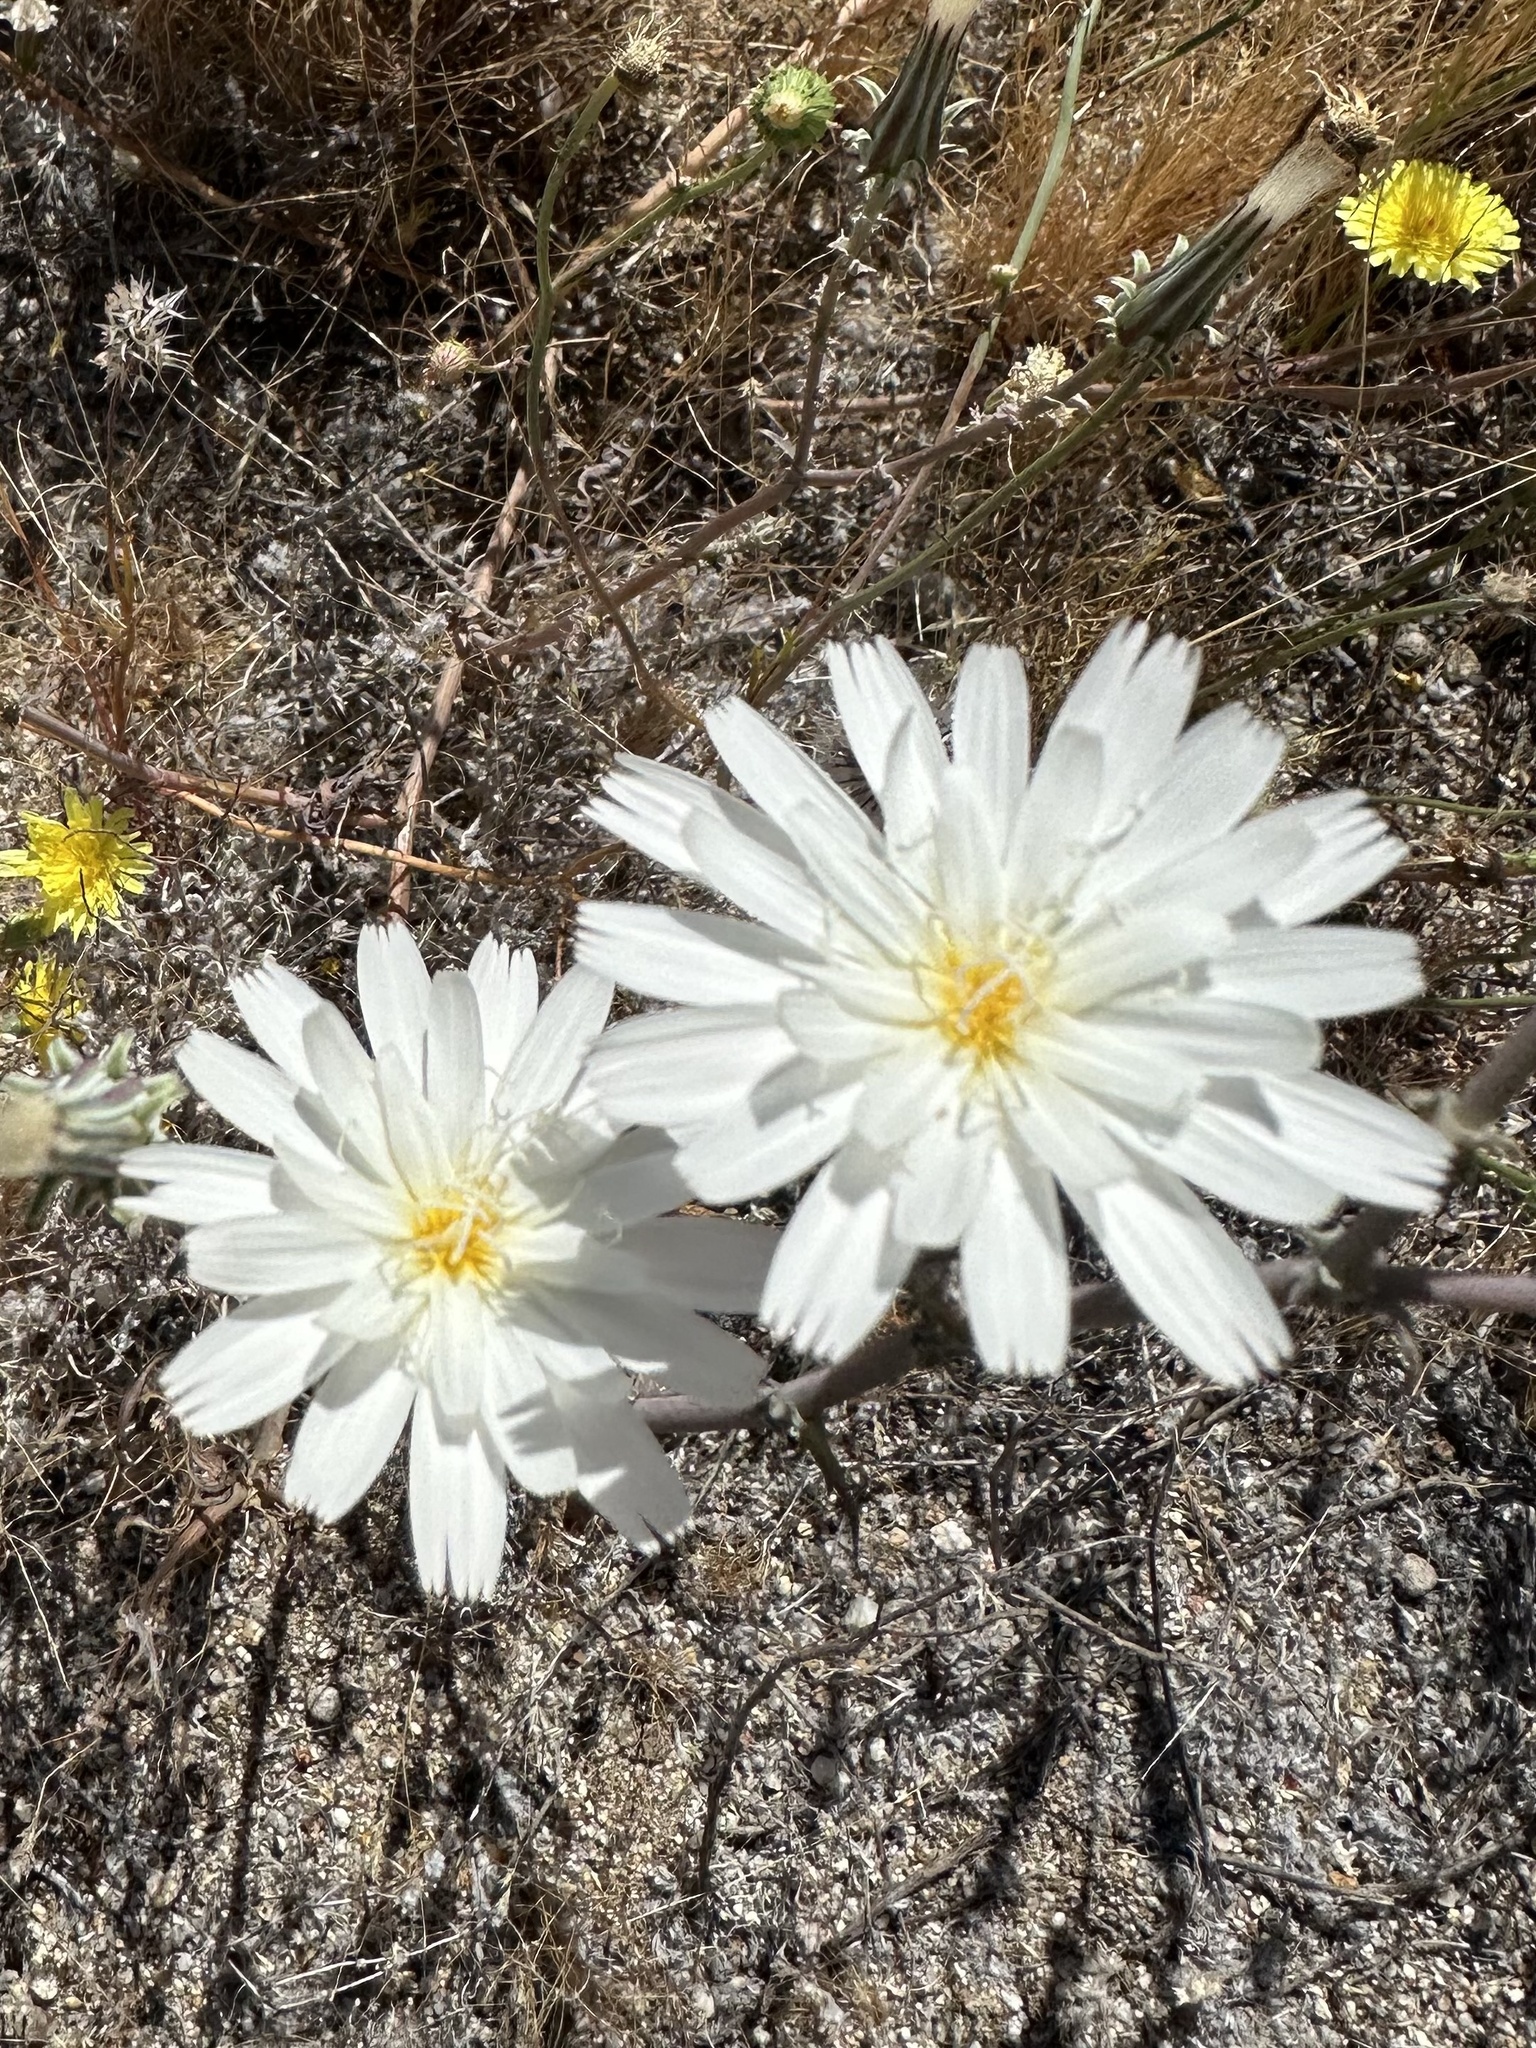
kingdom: Plantae
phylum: Tracheophyta
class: Magnoliopsida
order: Asterales
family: Asteraceae
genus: Rafinesquia
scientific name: Rafinesquia neomexicana
